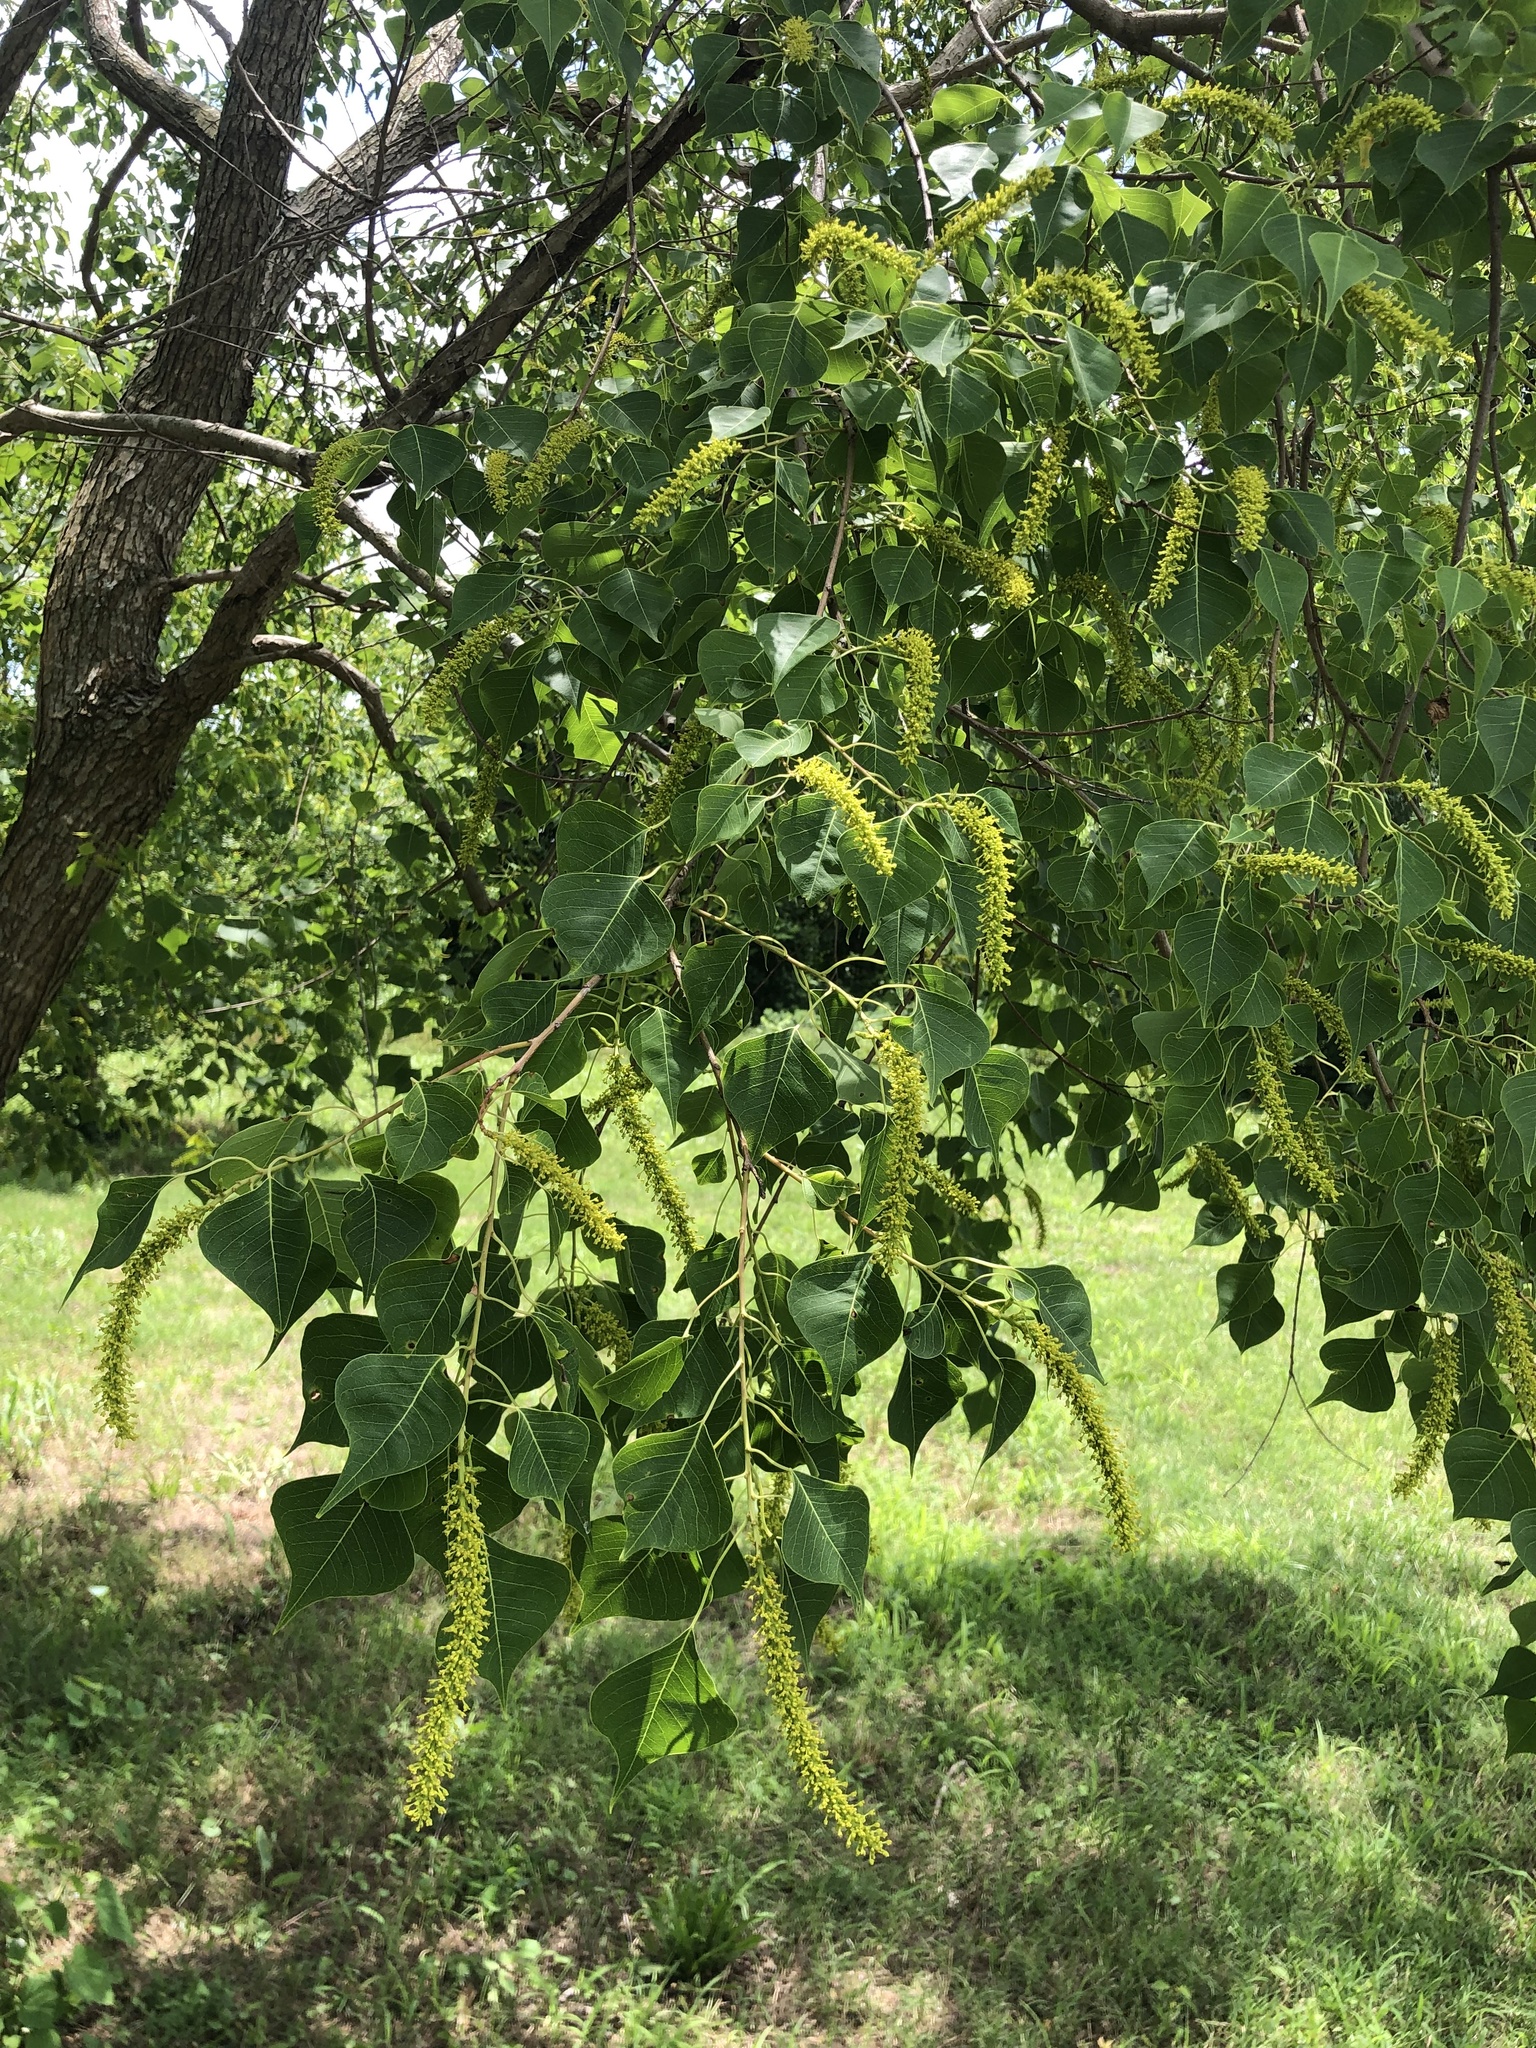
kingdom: Plantae
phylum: Tracheophyta
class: Magnoliopsida
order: Malpighiales
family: Euphorbiaceae
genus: Triadica
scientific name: Triadica sebifera
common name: Chinese tallow
